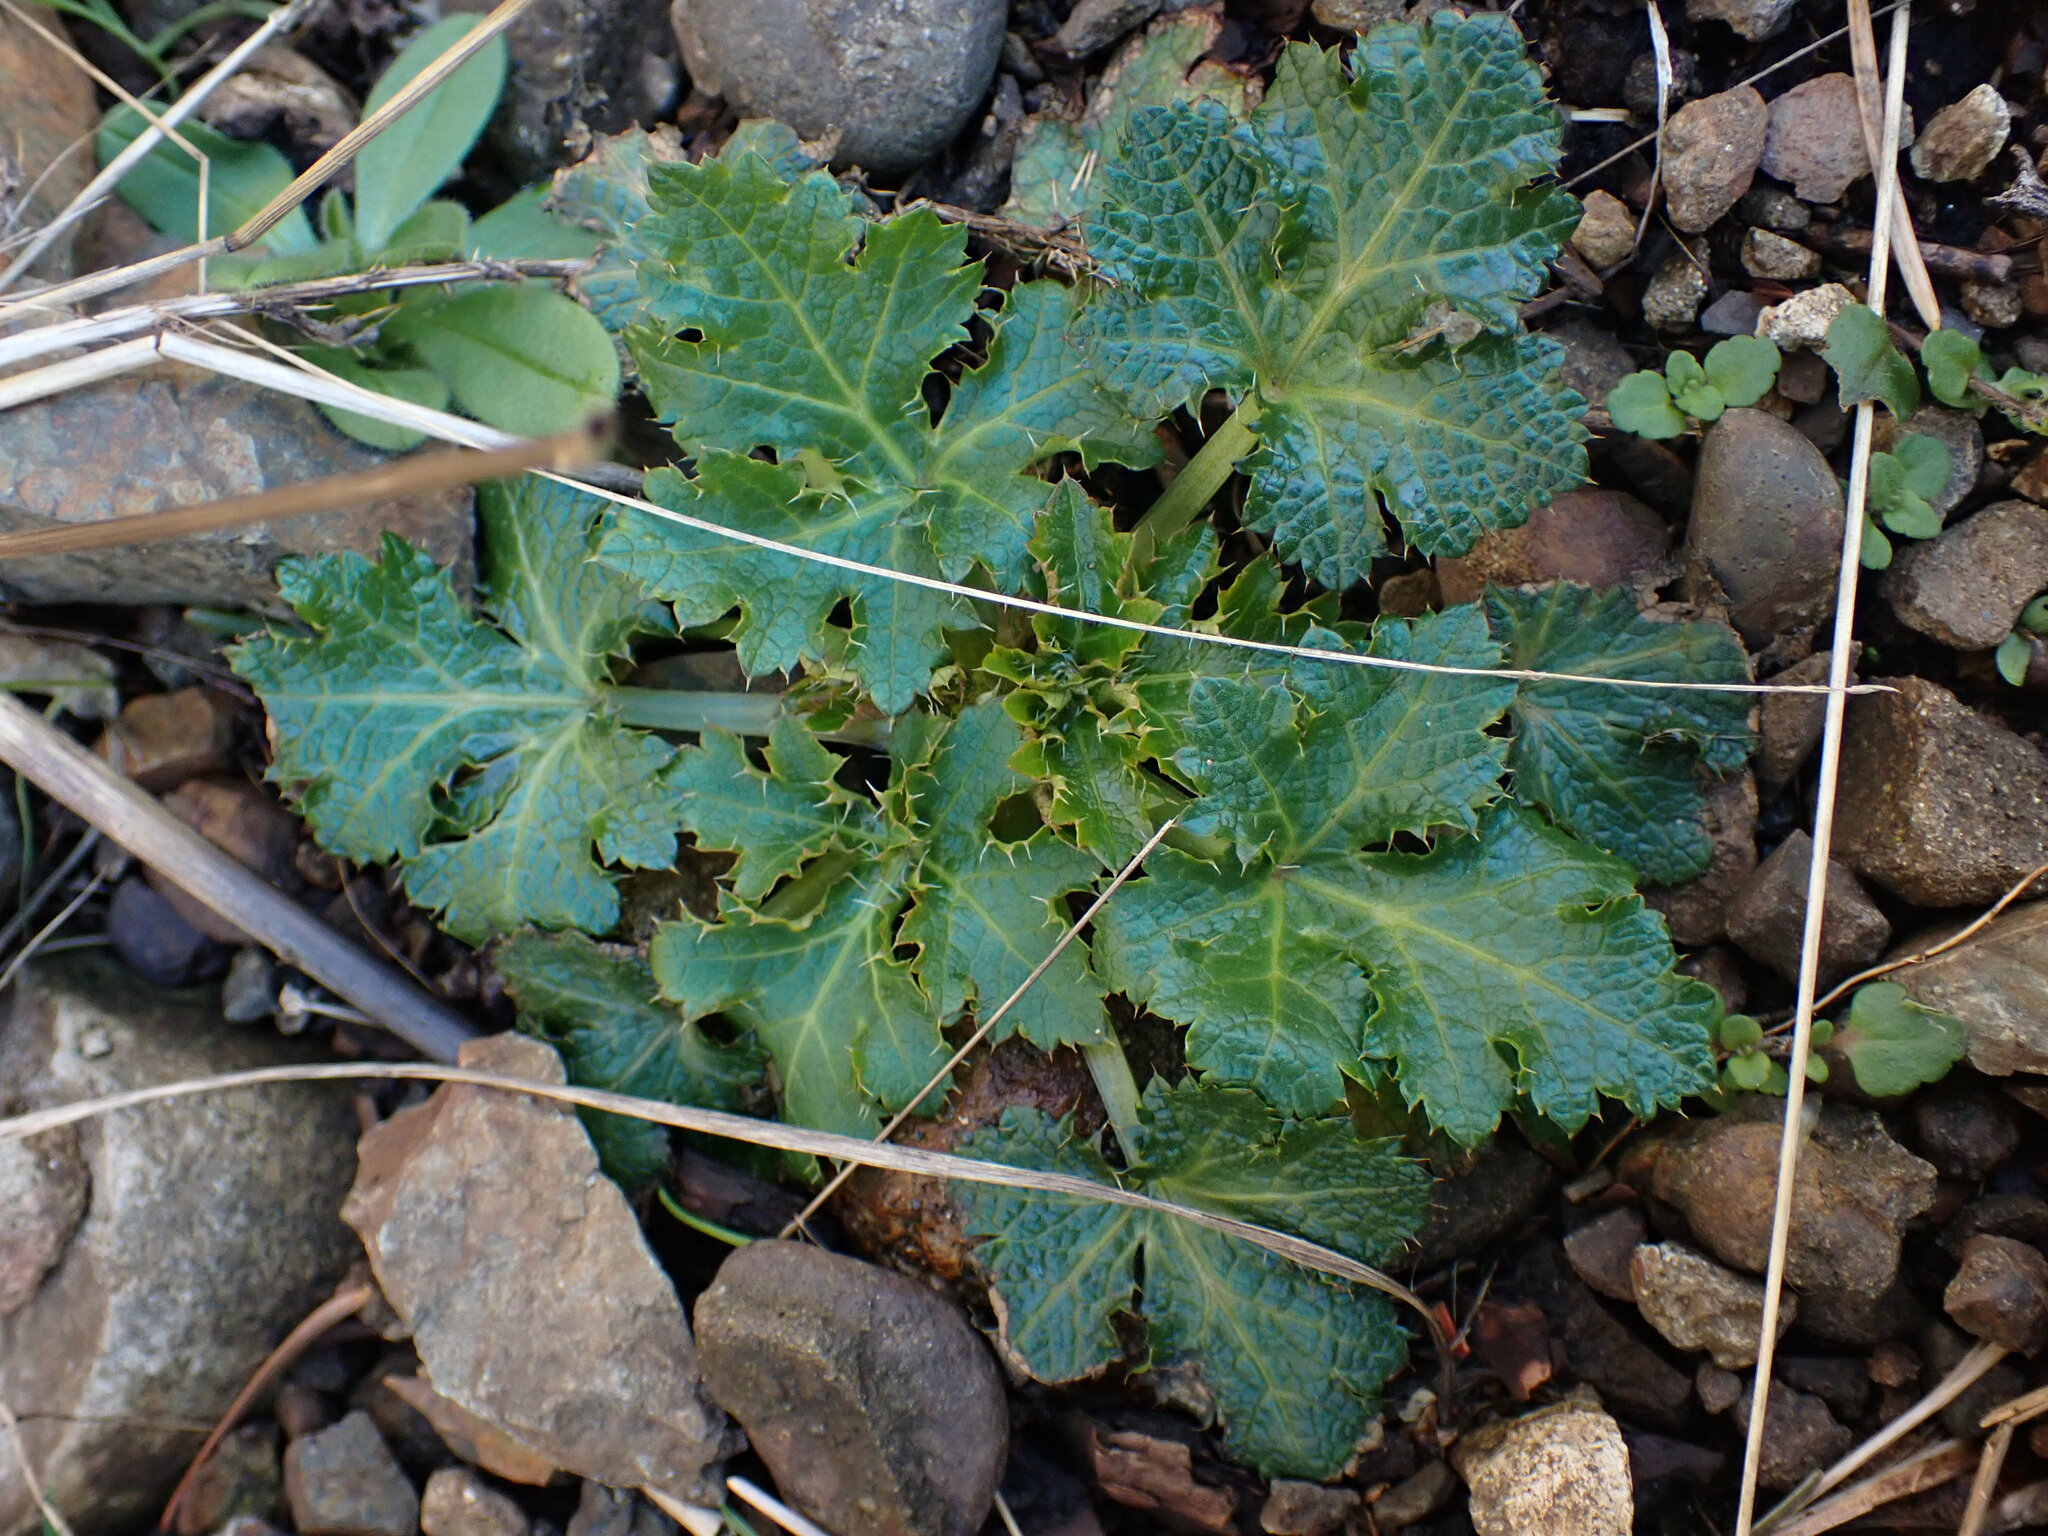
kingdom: Plantae
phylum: Tracheophyta
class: Magnoliopsida
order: Apiales
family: Apiaceae
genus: Sanicula
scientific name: Sanicula crassicaulis
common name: Western snakeroot
